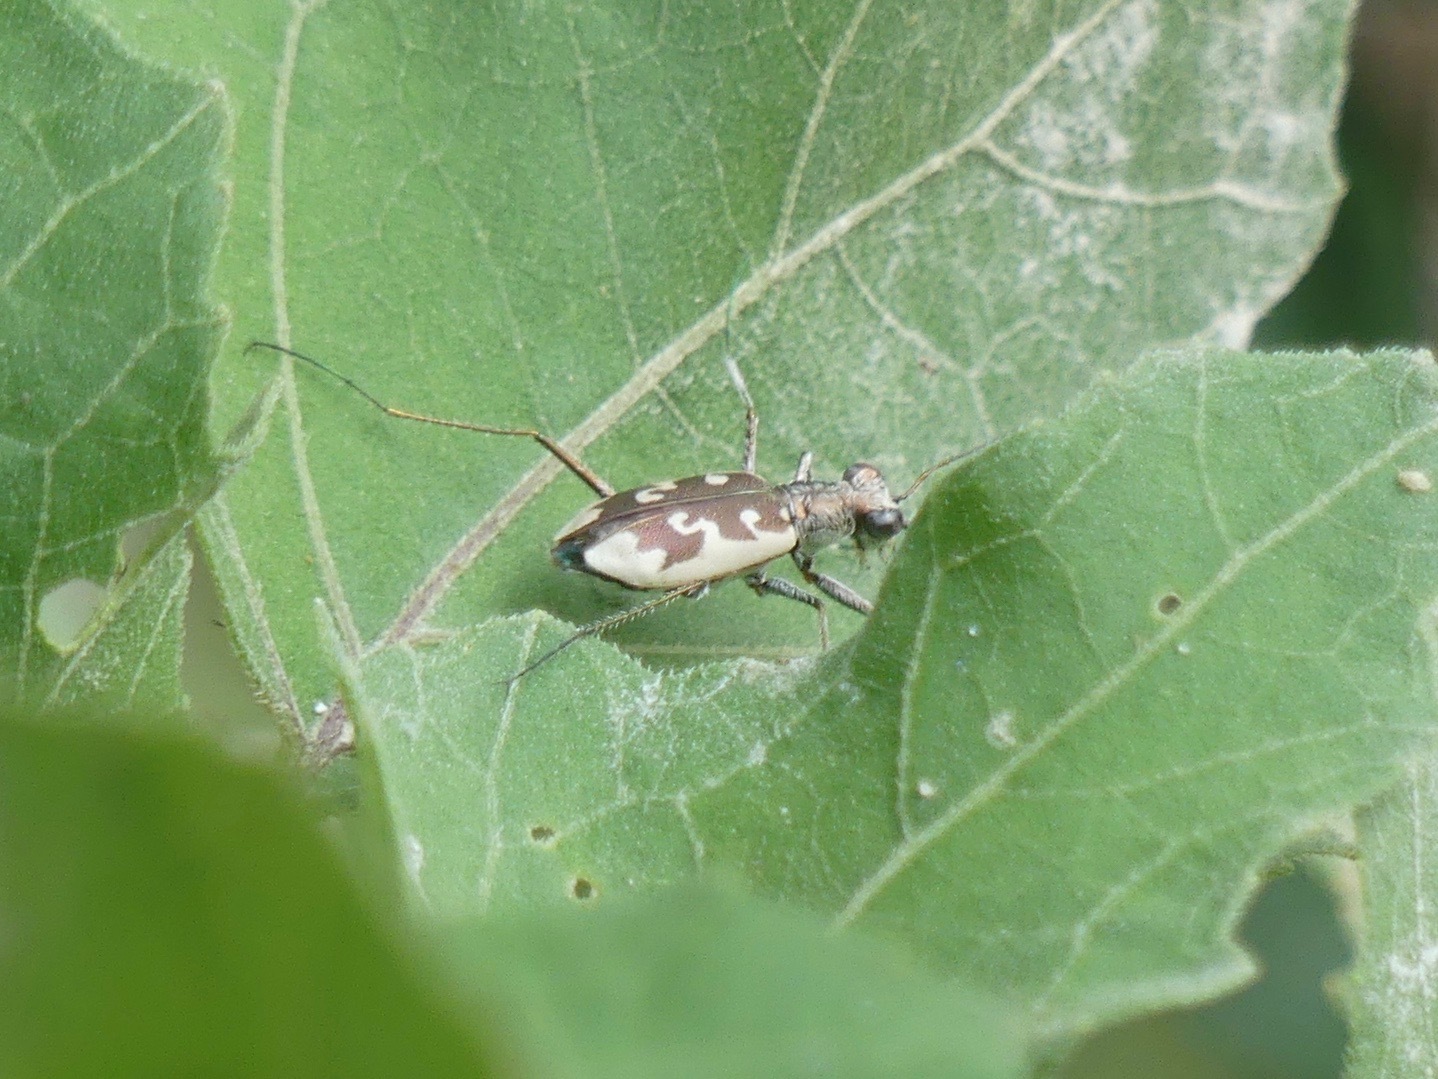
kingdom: Animalia
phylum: Arthropoda
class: Insecta
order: Coleoptera
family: Carabidae
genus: Ellipsoptera
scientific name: Ellipsoptera wapleri
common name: White-sand tiger beetle
